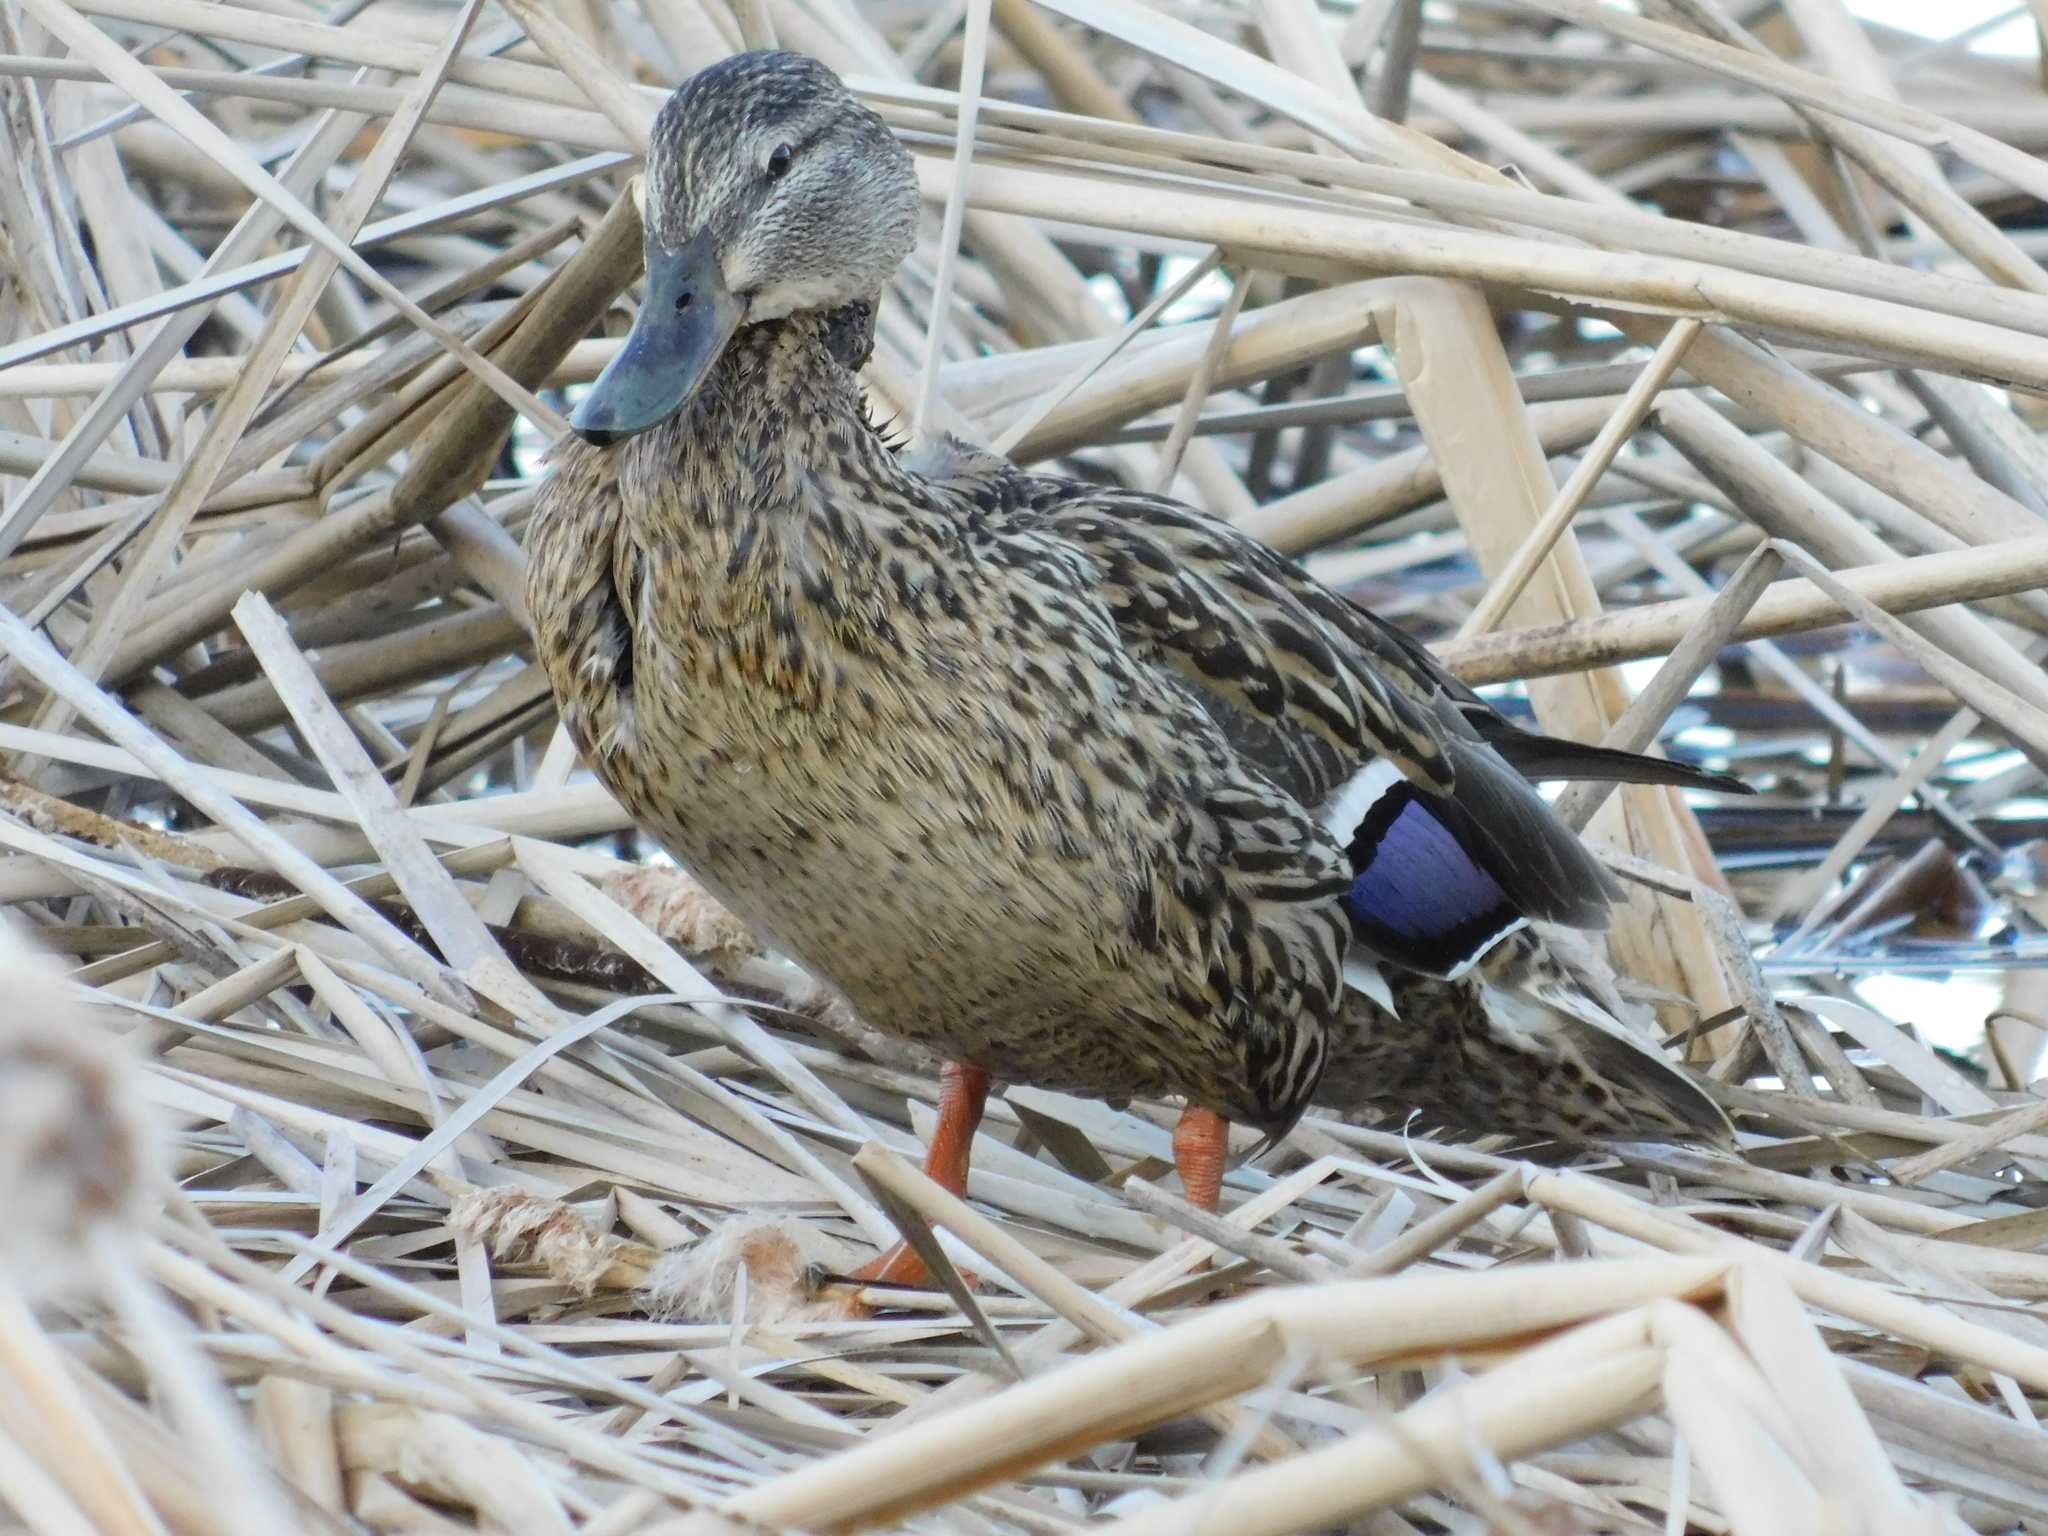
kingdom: Animalia
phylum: Chordata
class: Aves
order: Anseriformes
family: Anatidae
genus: Anas
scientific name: Anas platyrhynchos
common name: Mallard
